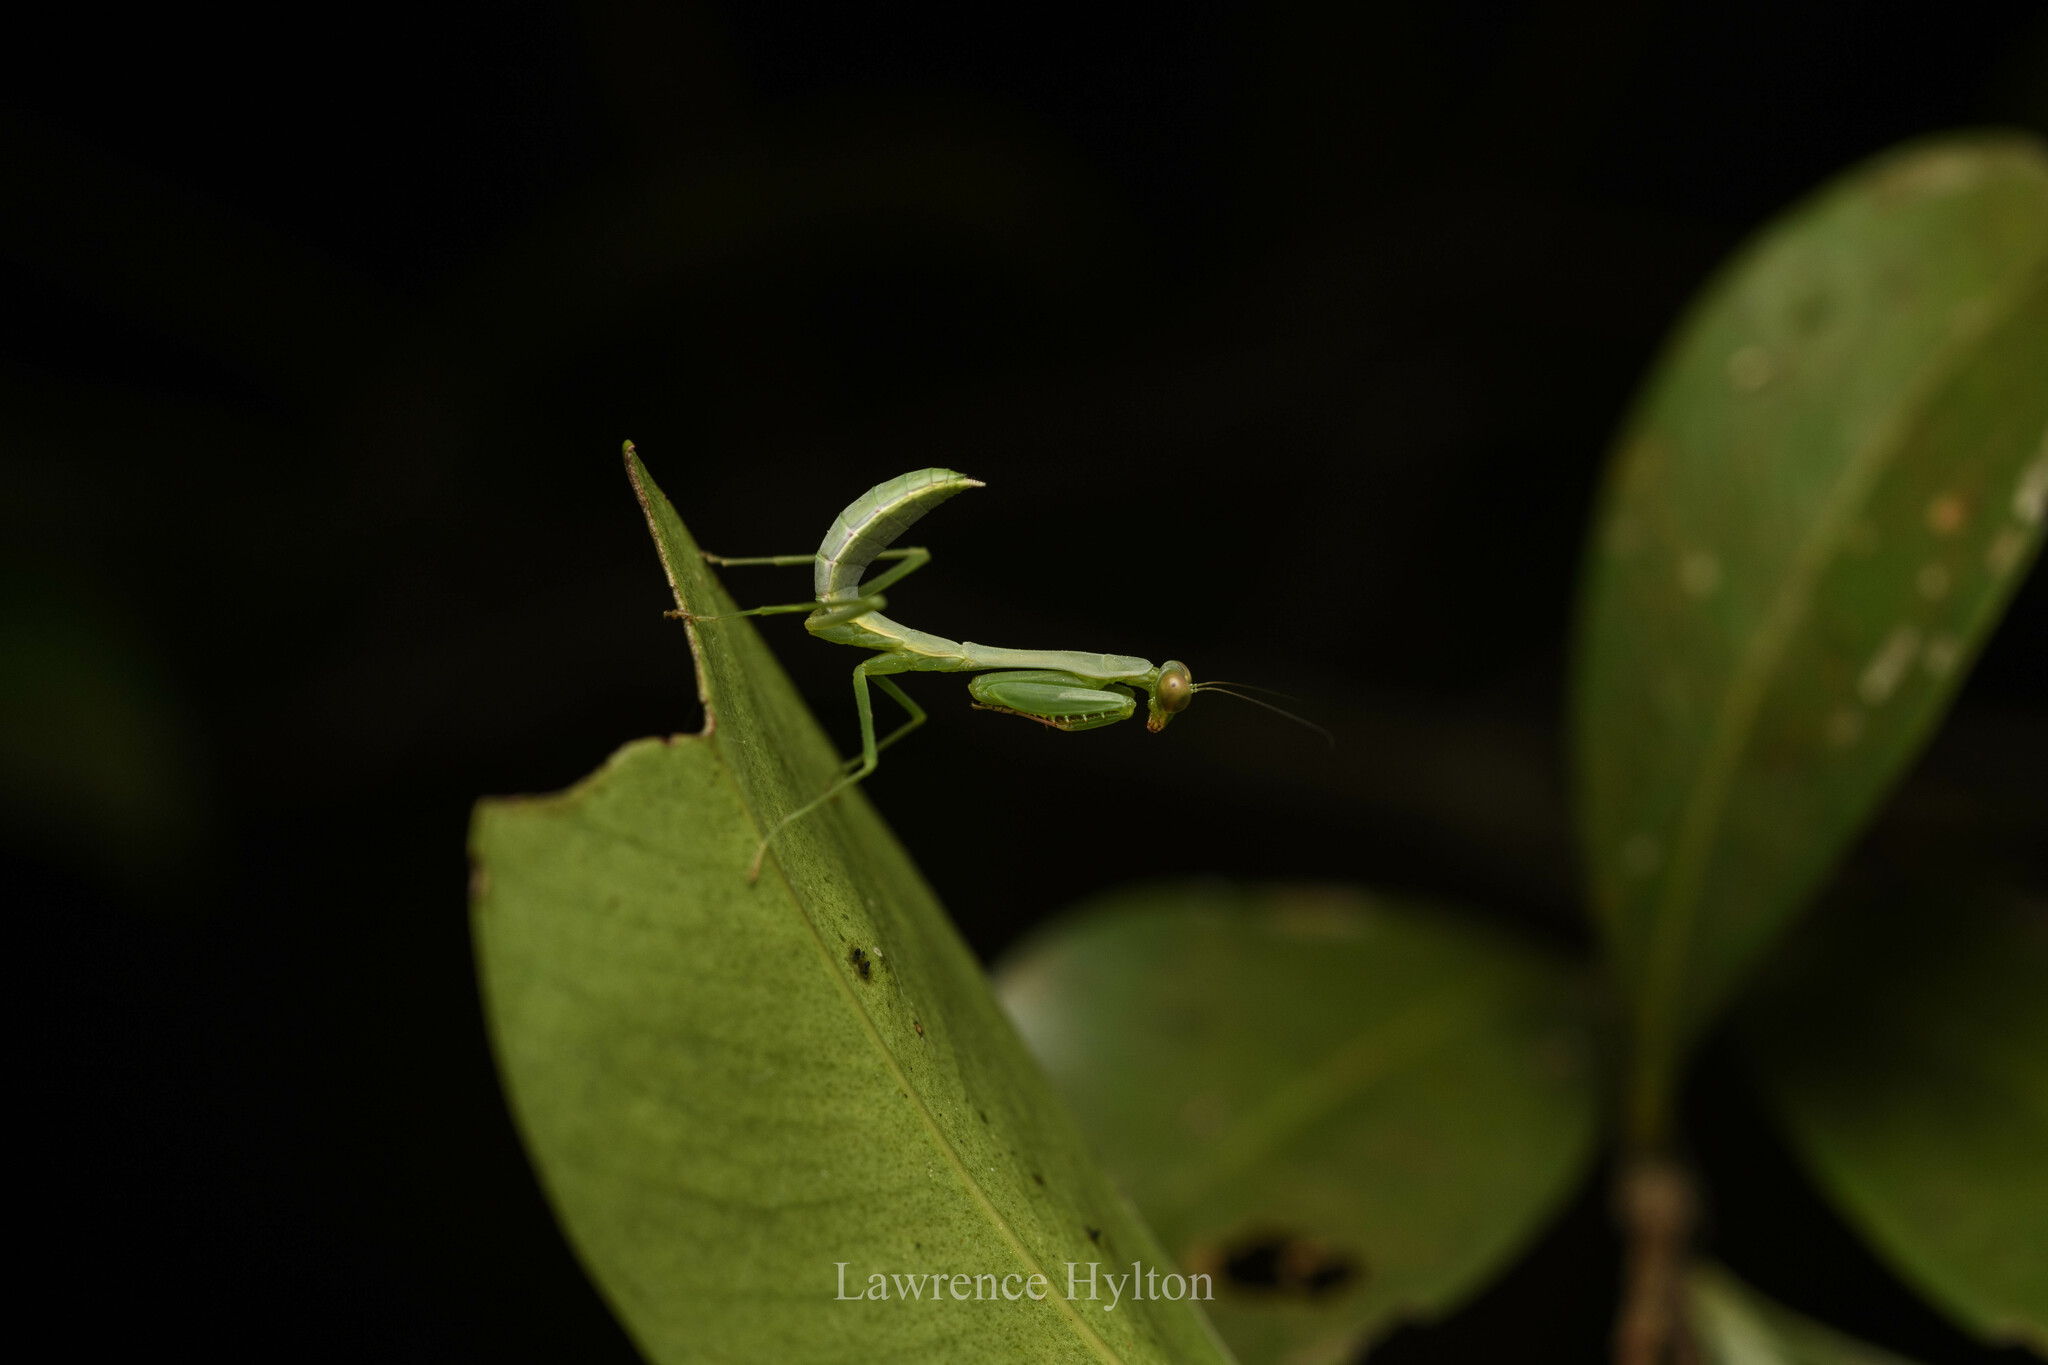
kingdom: Animalia
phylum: Arthropoda
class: Insecta
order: Mantodea
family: Mantidae
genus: Titanodula
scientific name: Titanodula formosana
